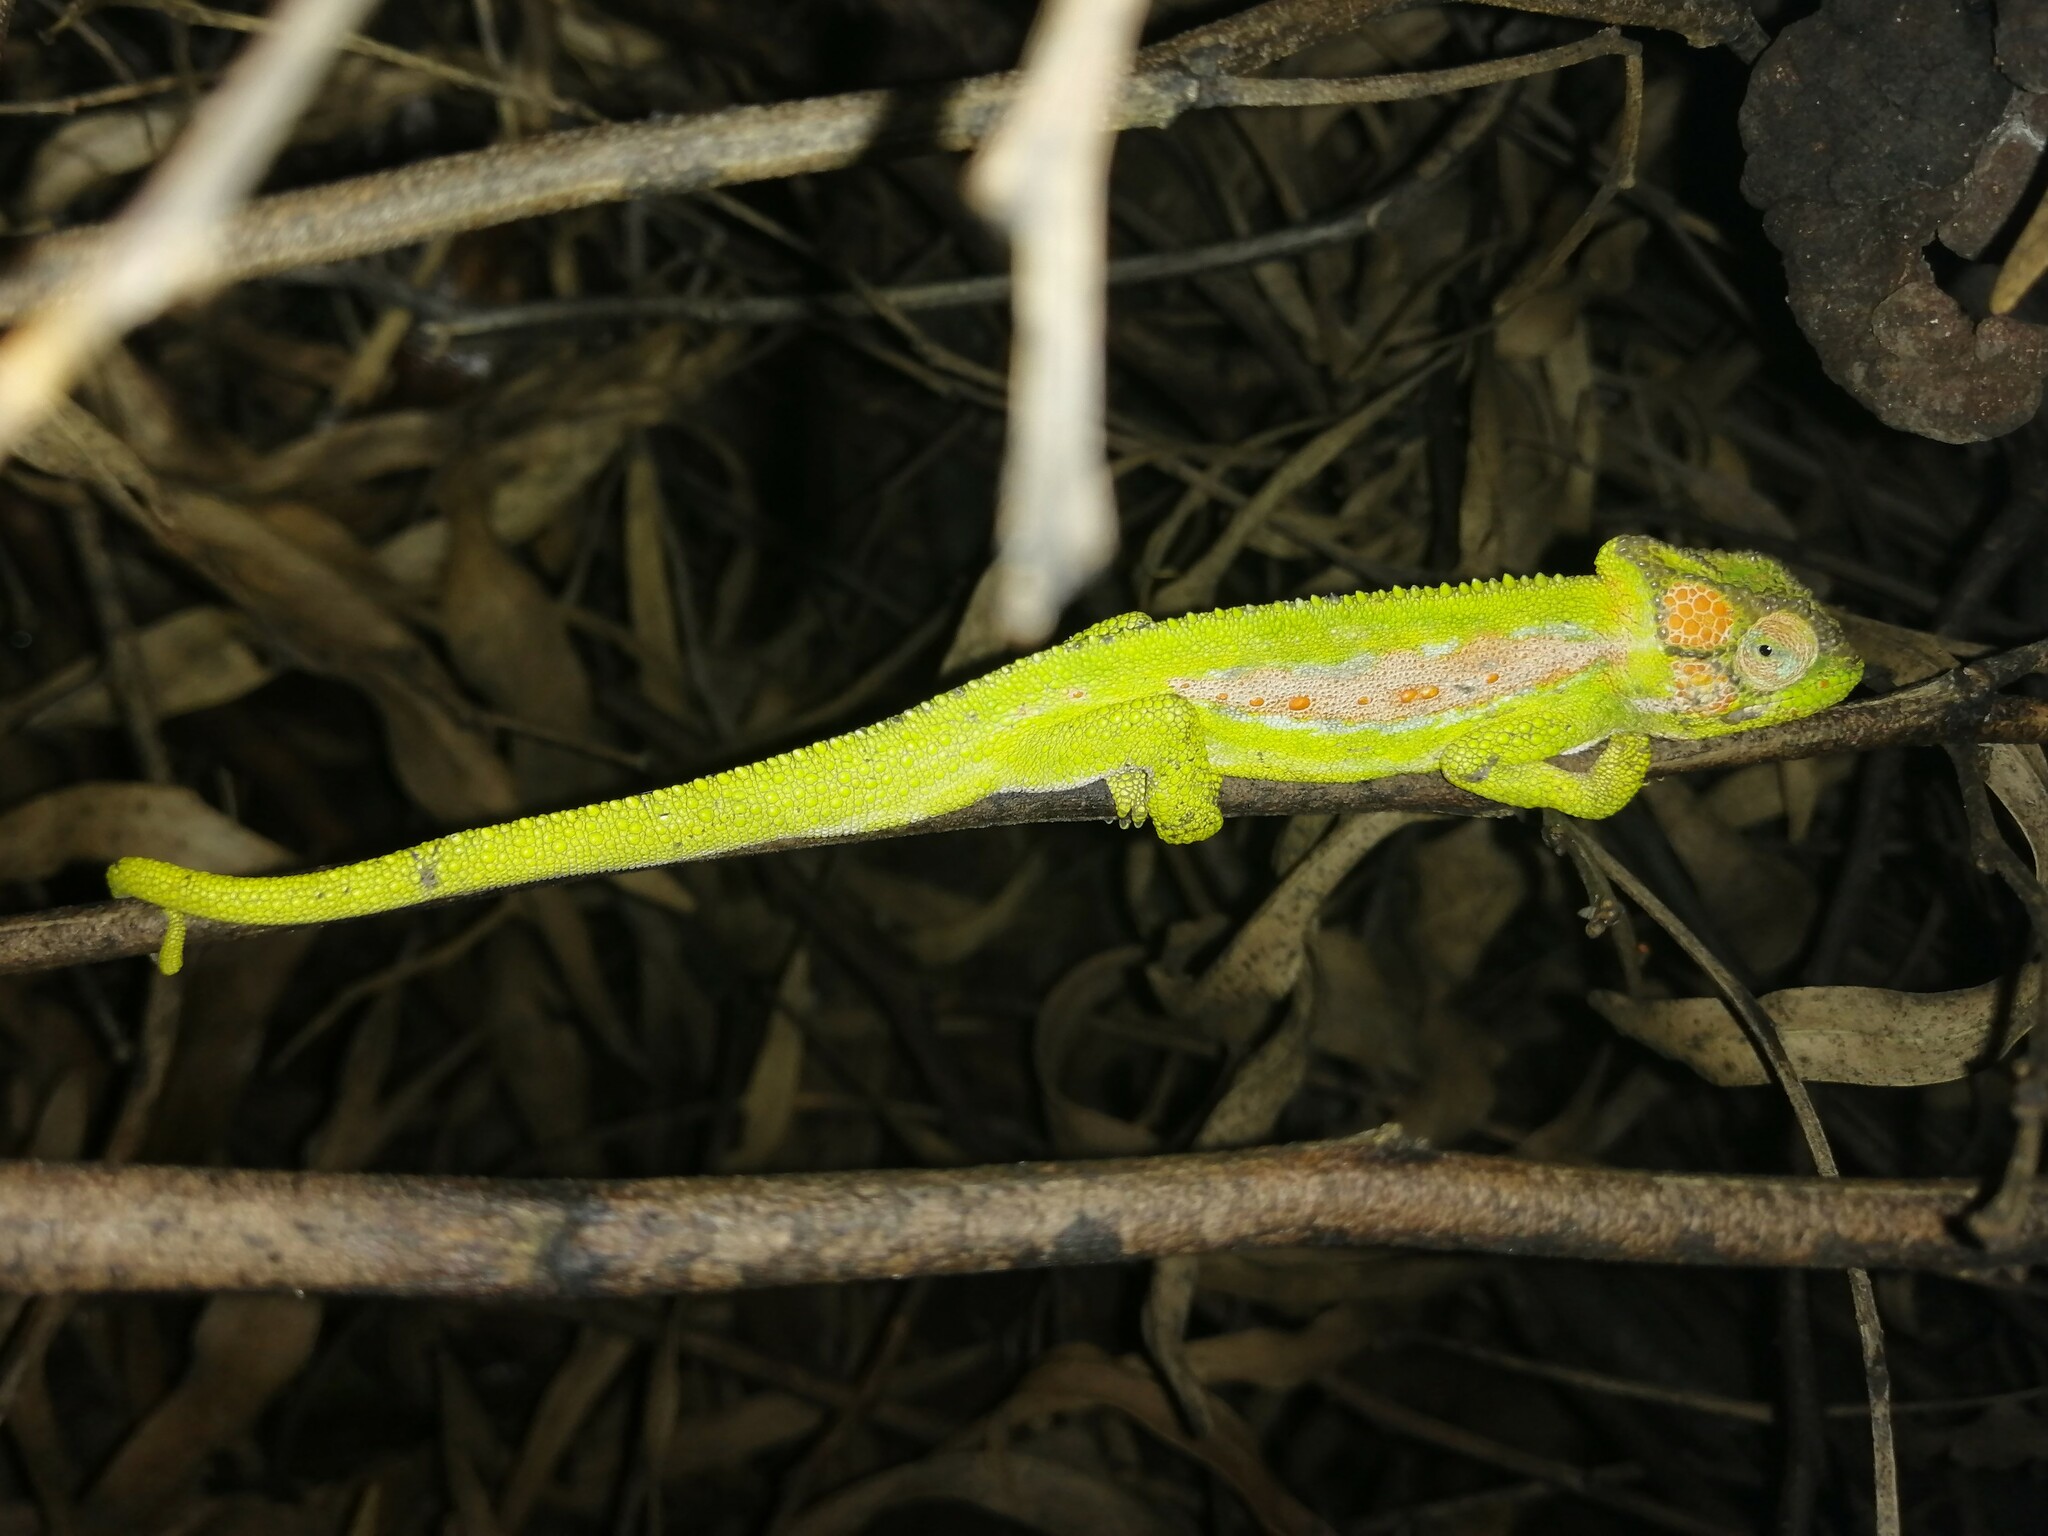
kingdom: Animalia
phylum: Chordata
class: Squamata
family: Chamaeleonidae
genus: Bradypodion
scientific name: Bradypodion pumilum
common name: Cape dwarf chameleon
